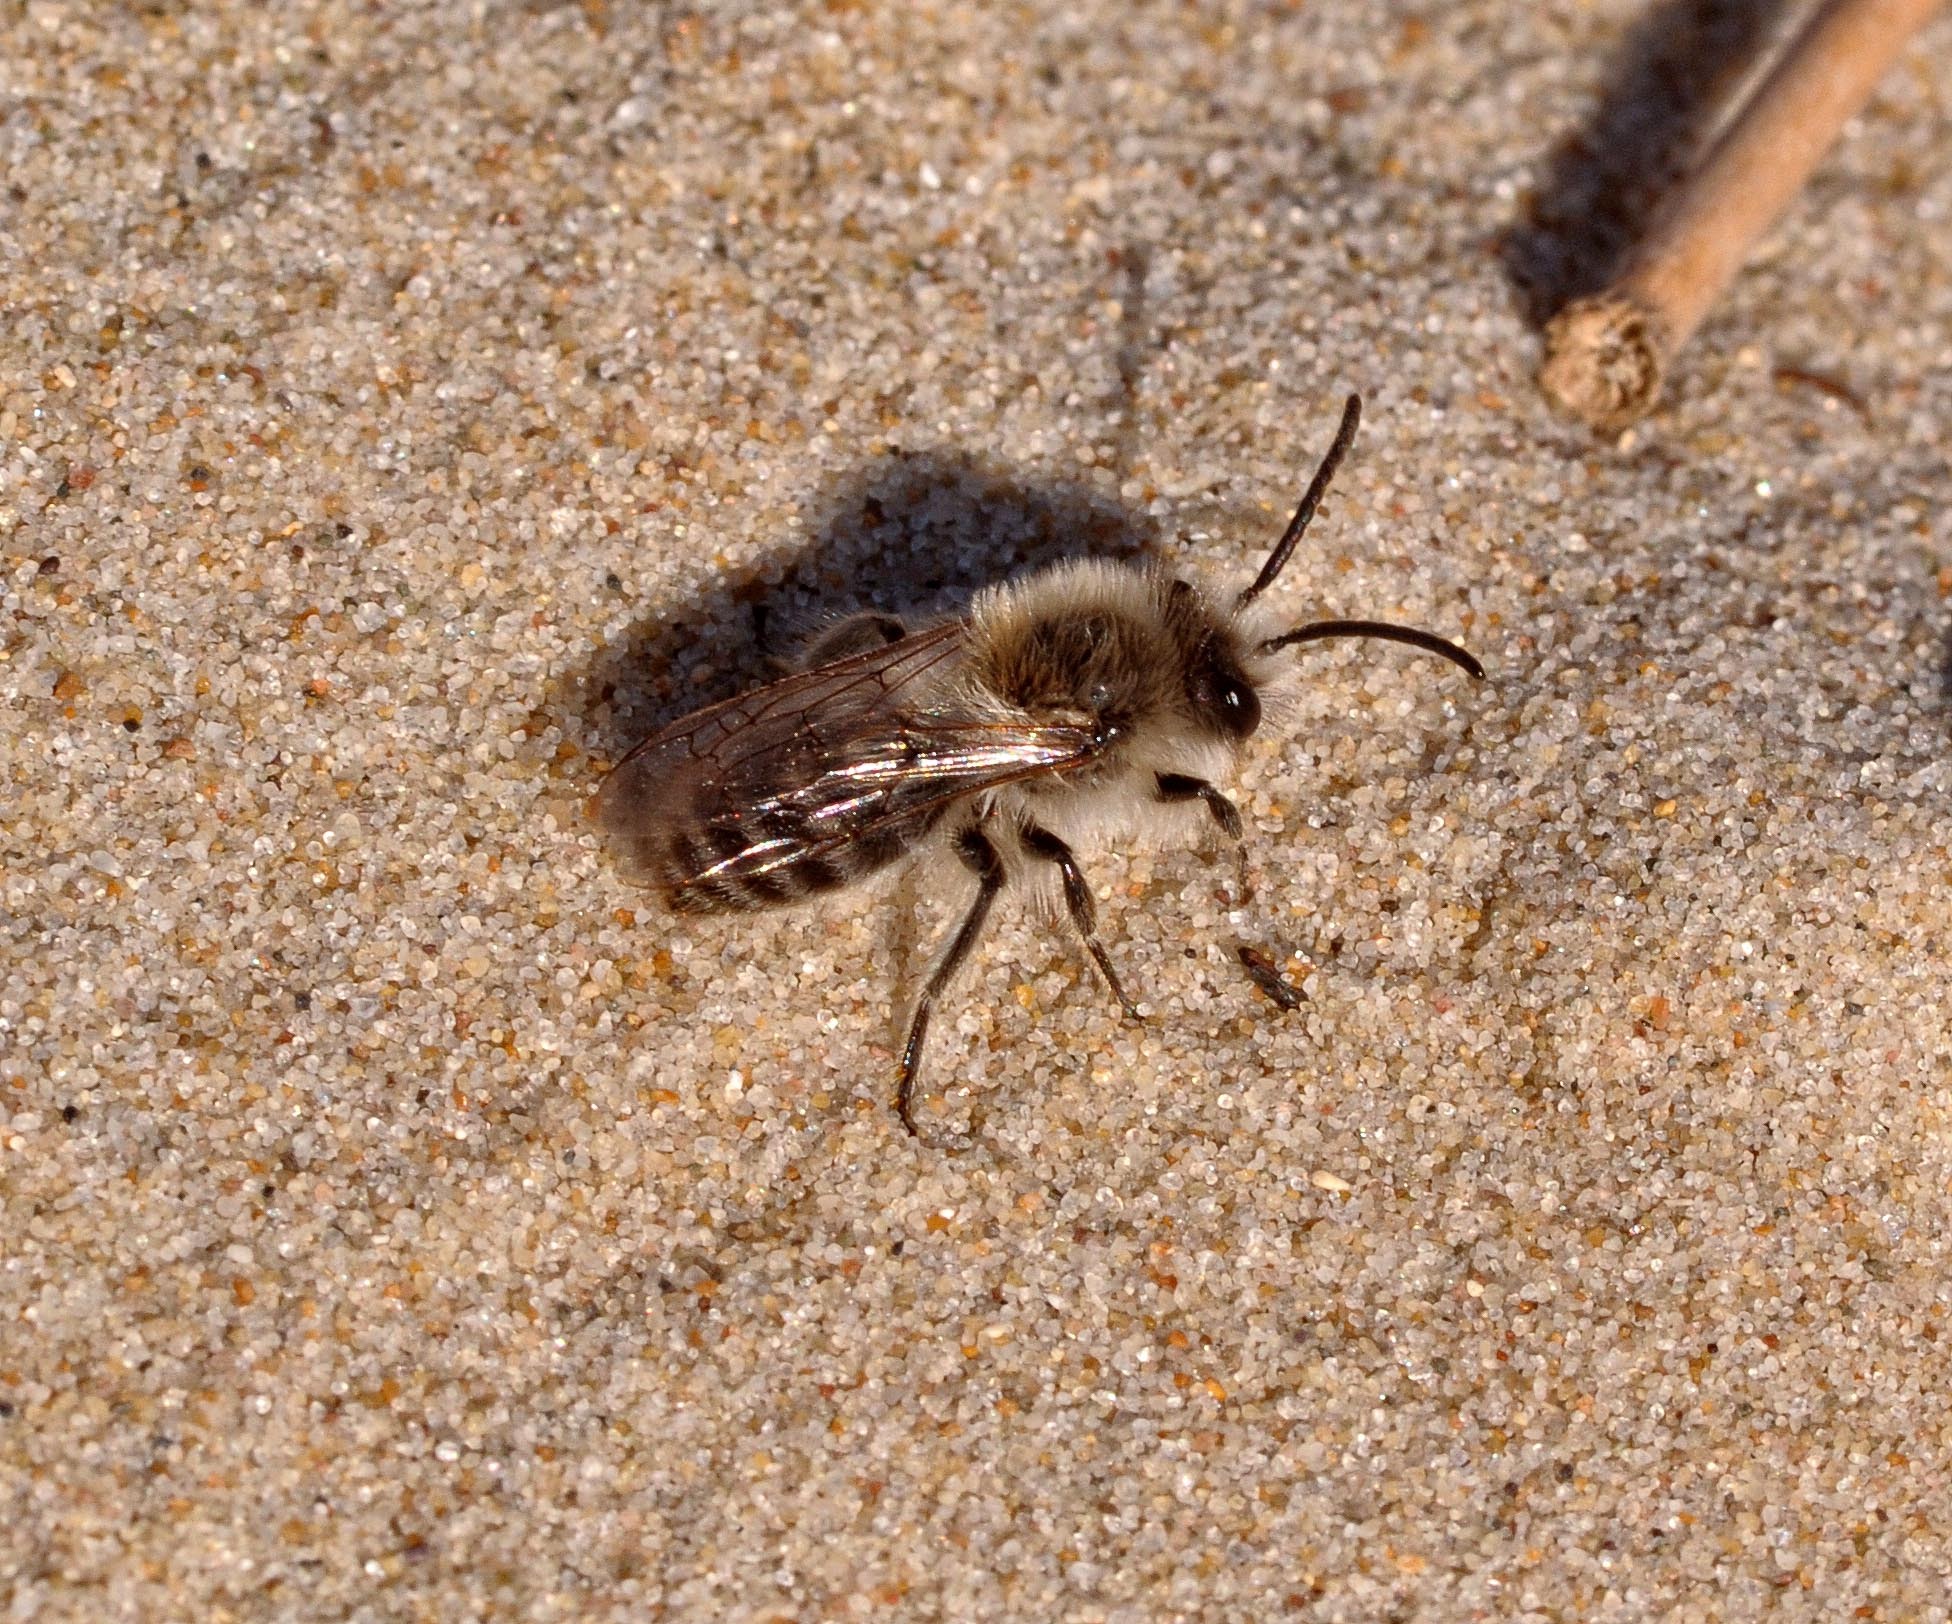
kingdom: Animalia
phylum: Arthropoda
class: Insecta
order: Hymenoptera
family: Colletidae
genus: Colletes
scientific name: Colletes cunicularius
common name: Early colletes
